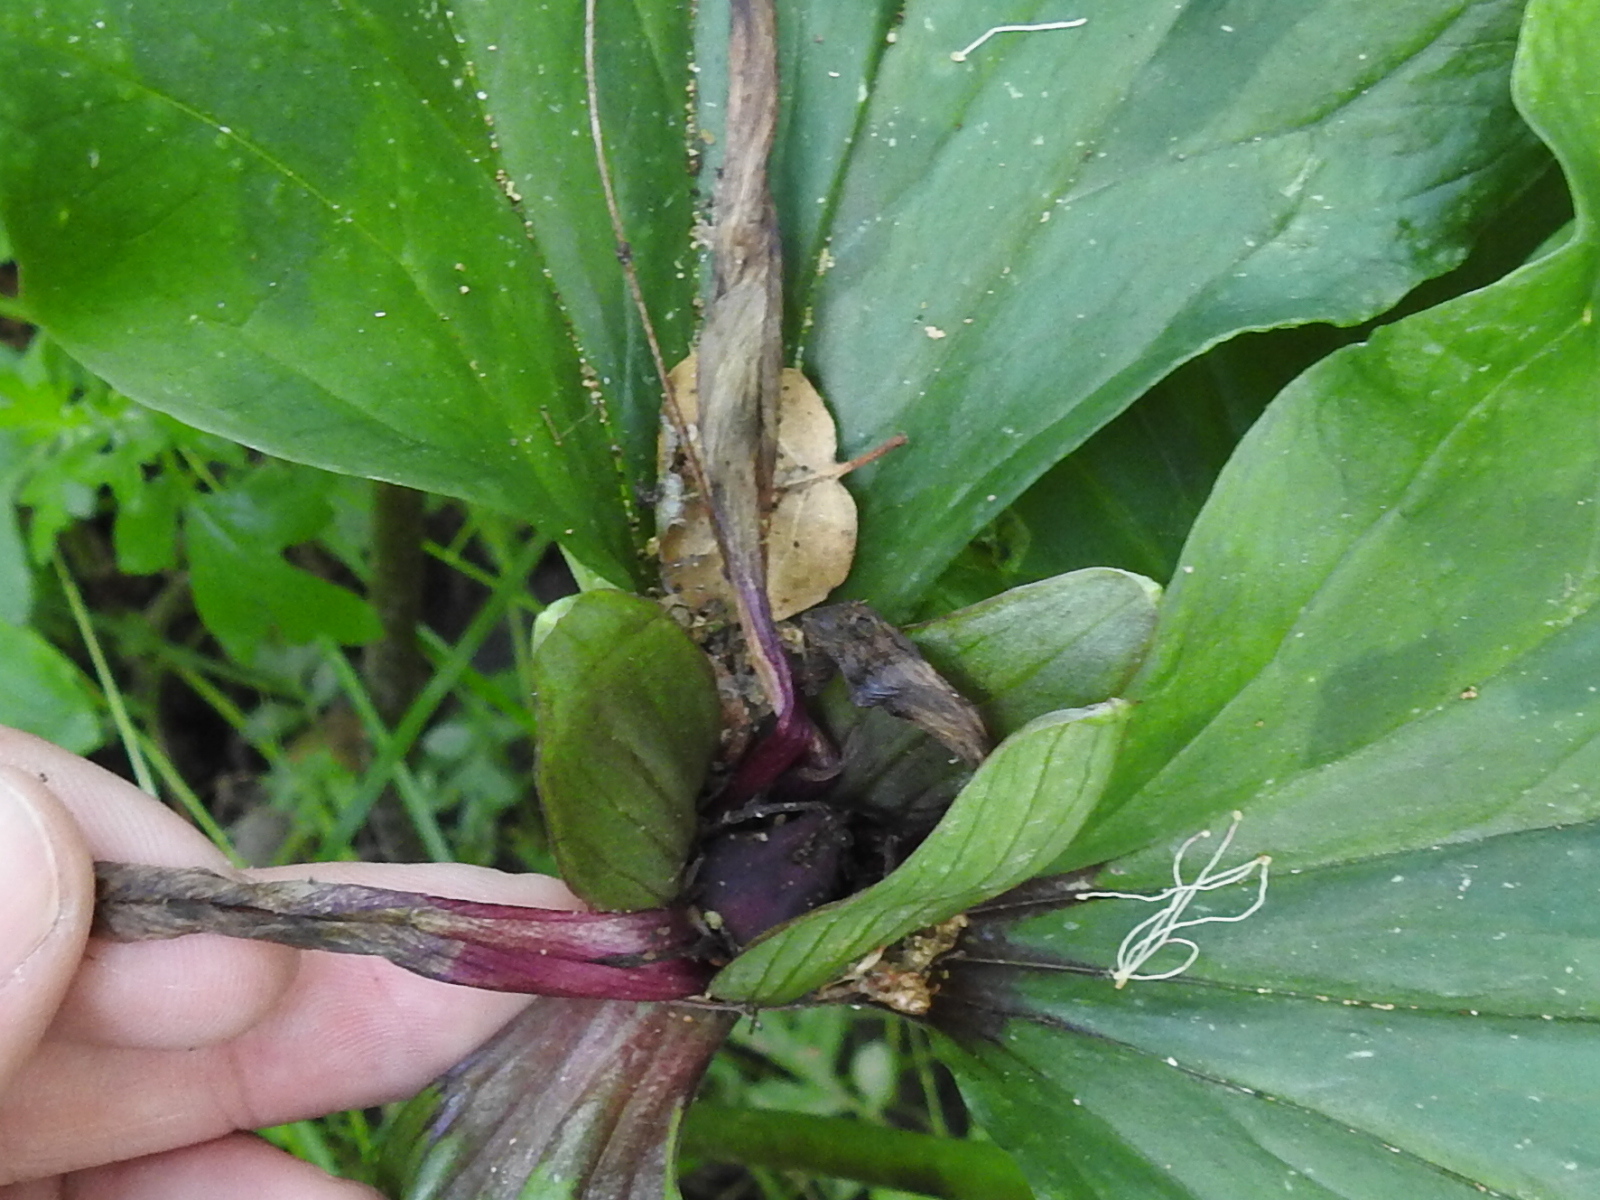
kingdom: Plantae
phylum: Tracheophyta
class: Liliopsida
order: Liliales
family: Melanthiaceae
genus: Trillium
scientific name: Trillium chloropetalum
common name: Giant trillium
